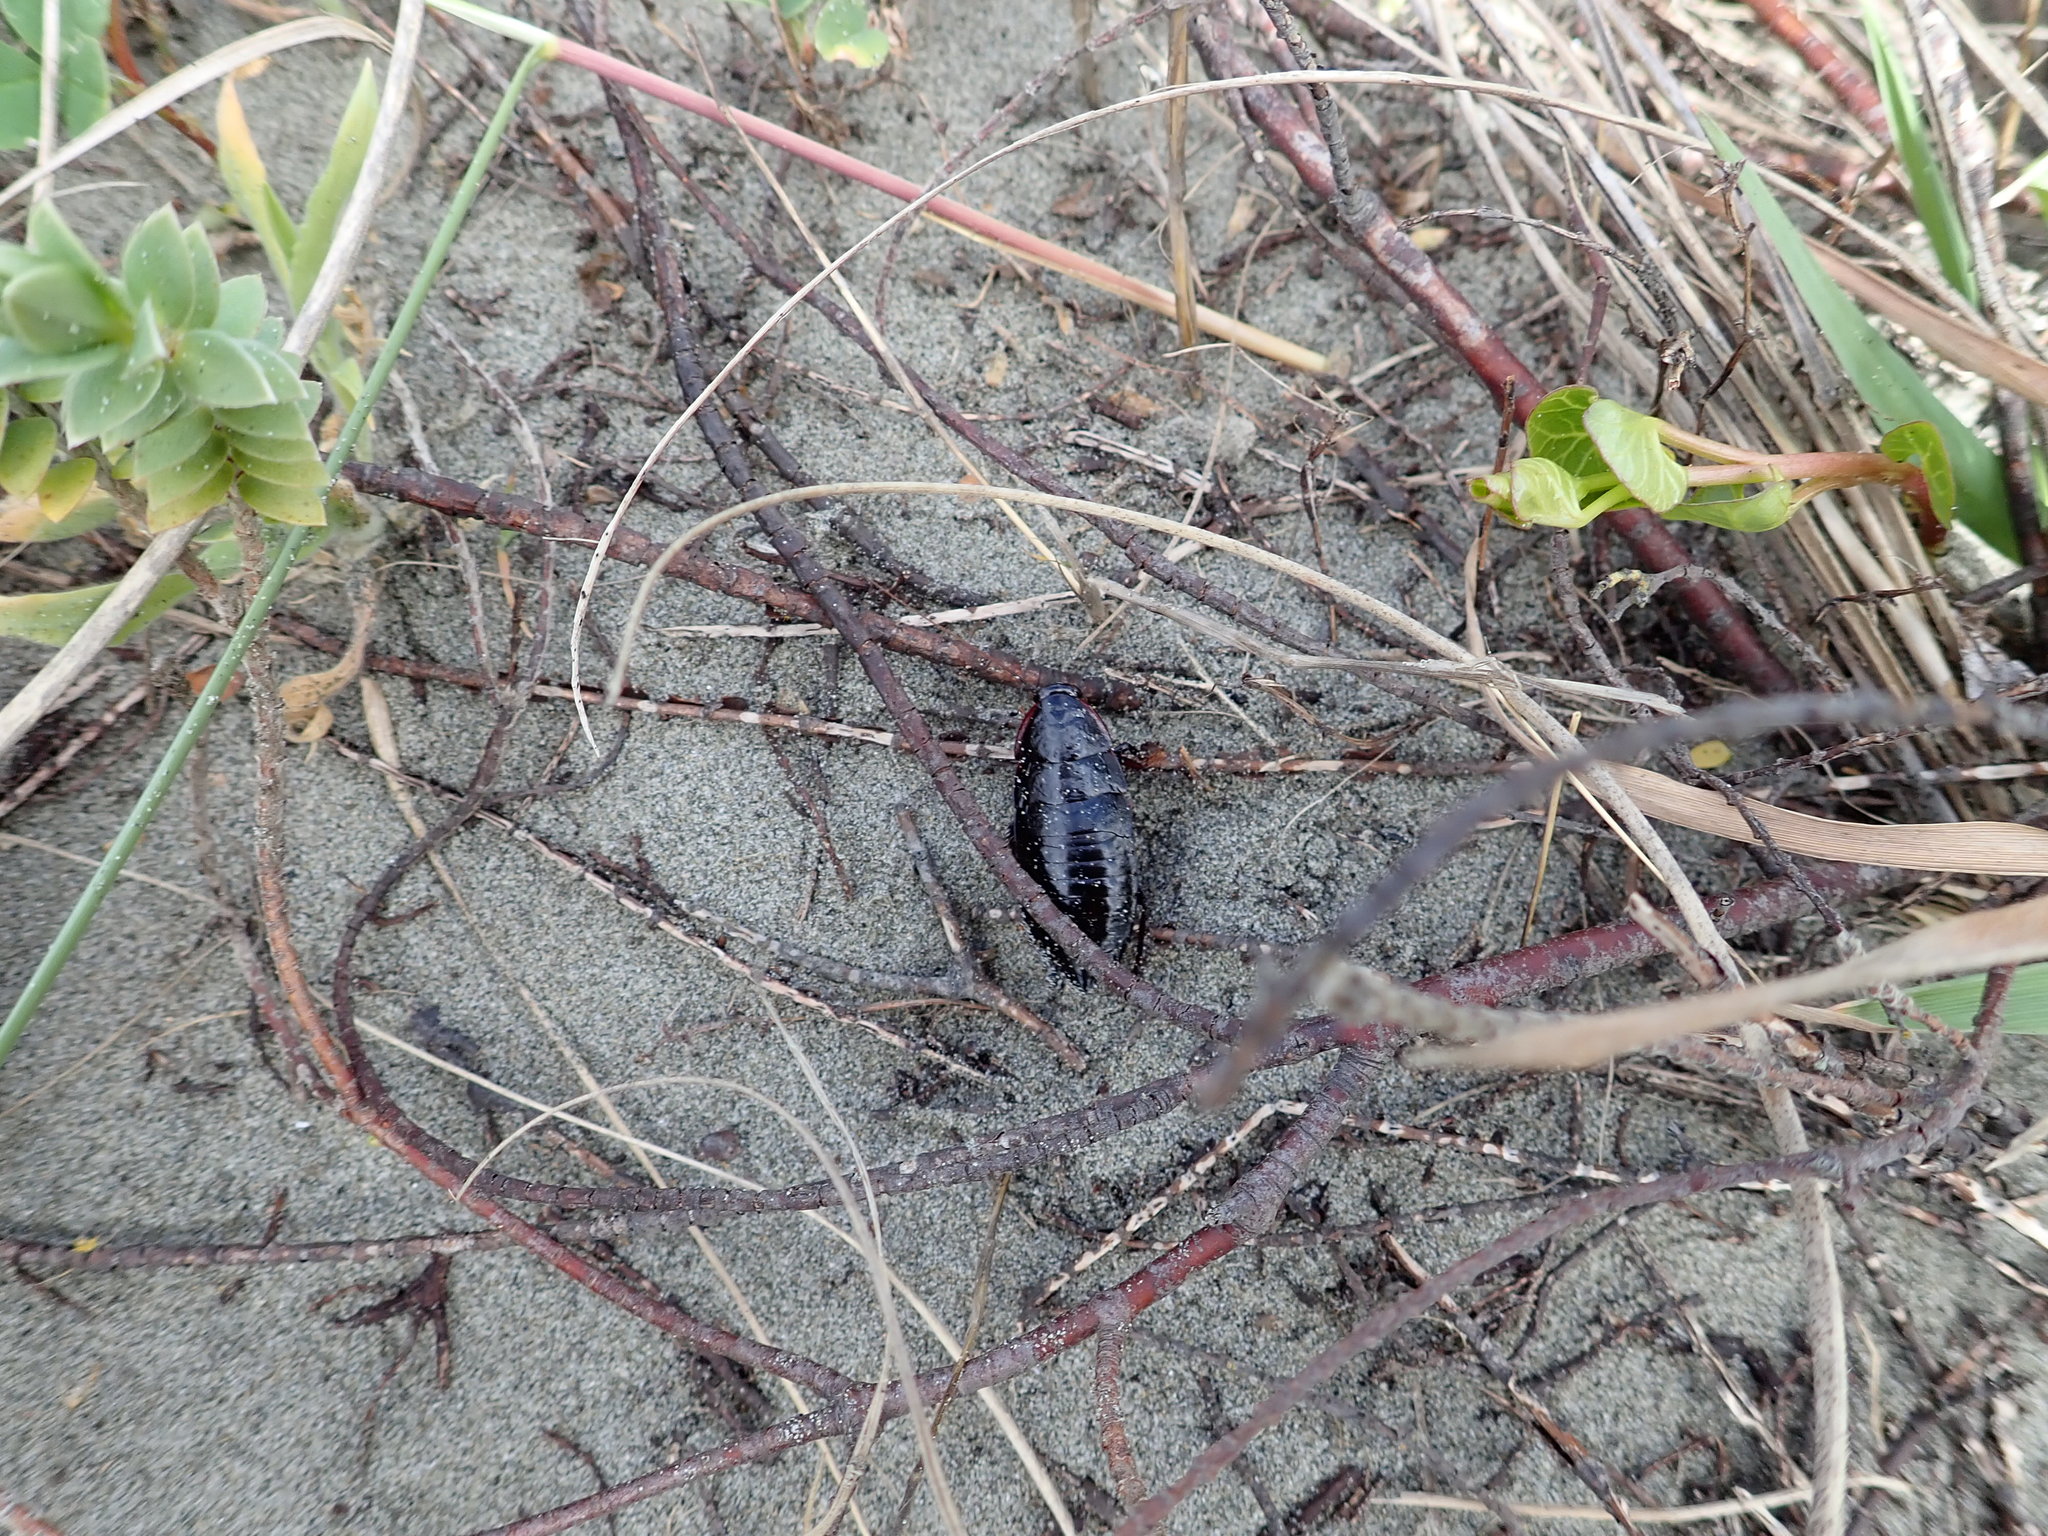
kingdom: Animalia
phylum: Arthropoda
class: Insecta
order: Blattodea
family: Blattidae
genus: Maoriblatta
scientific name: Maoriblatta novaeseelandiae
